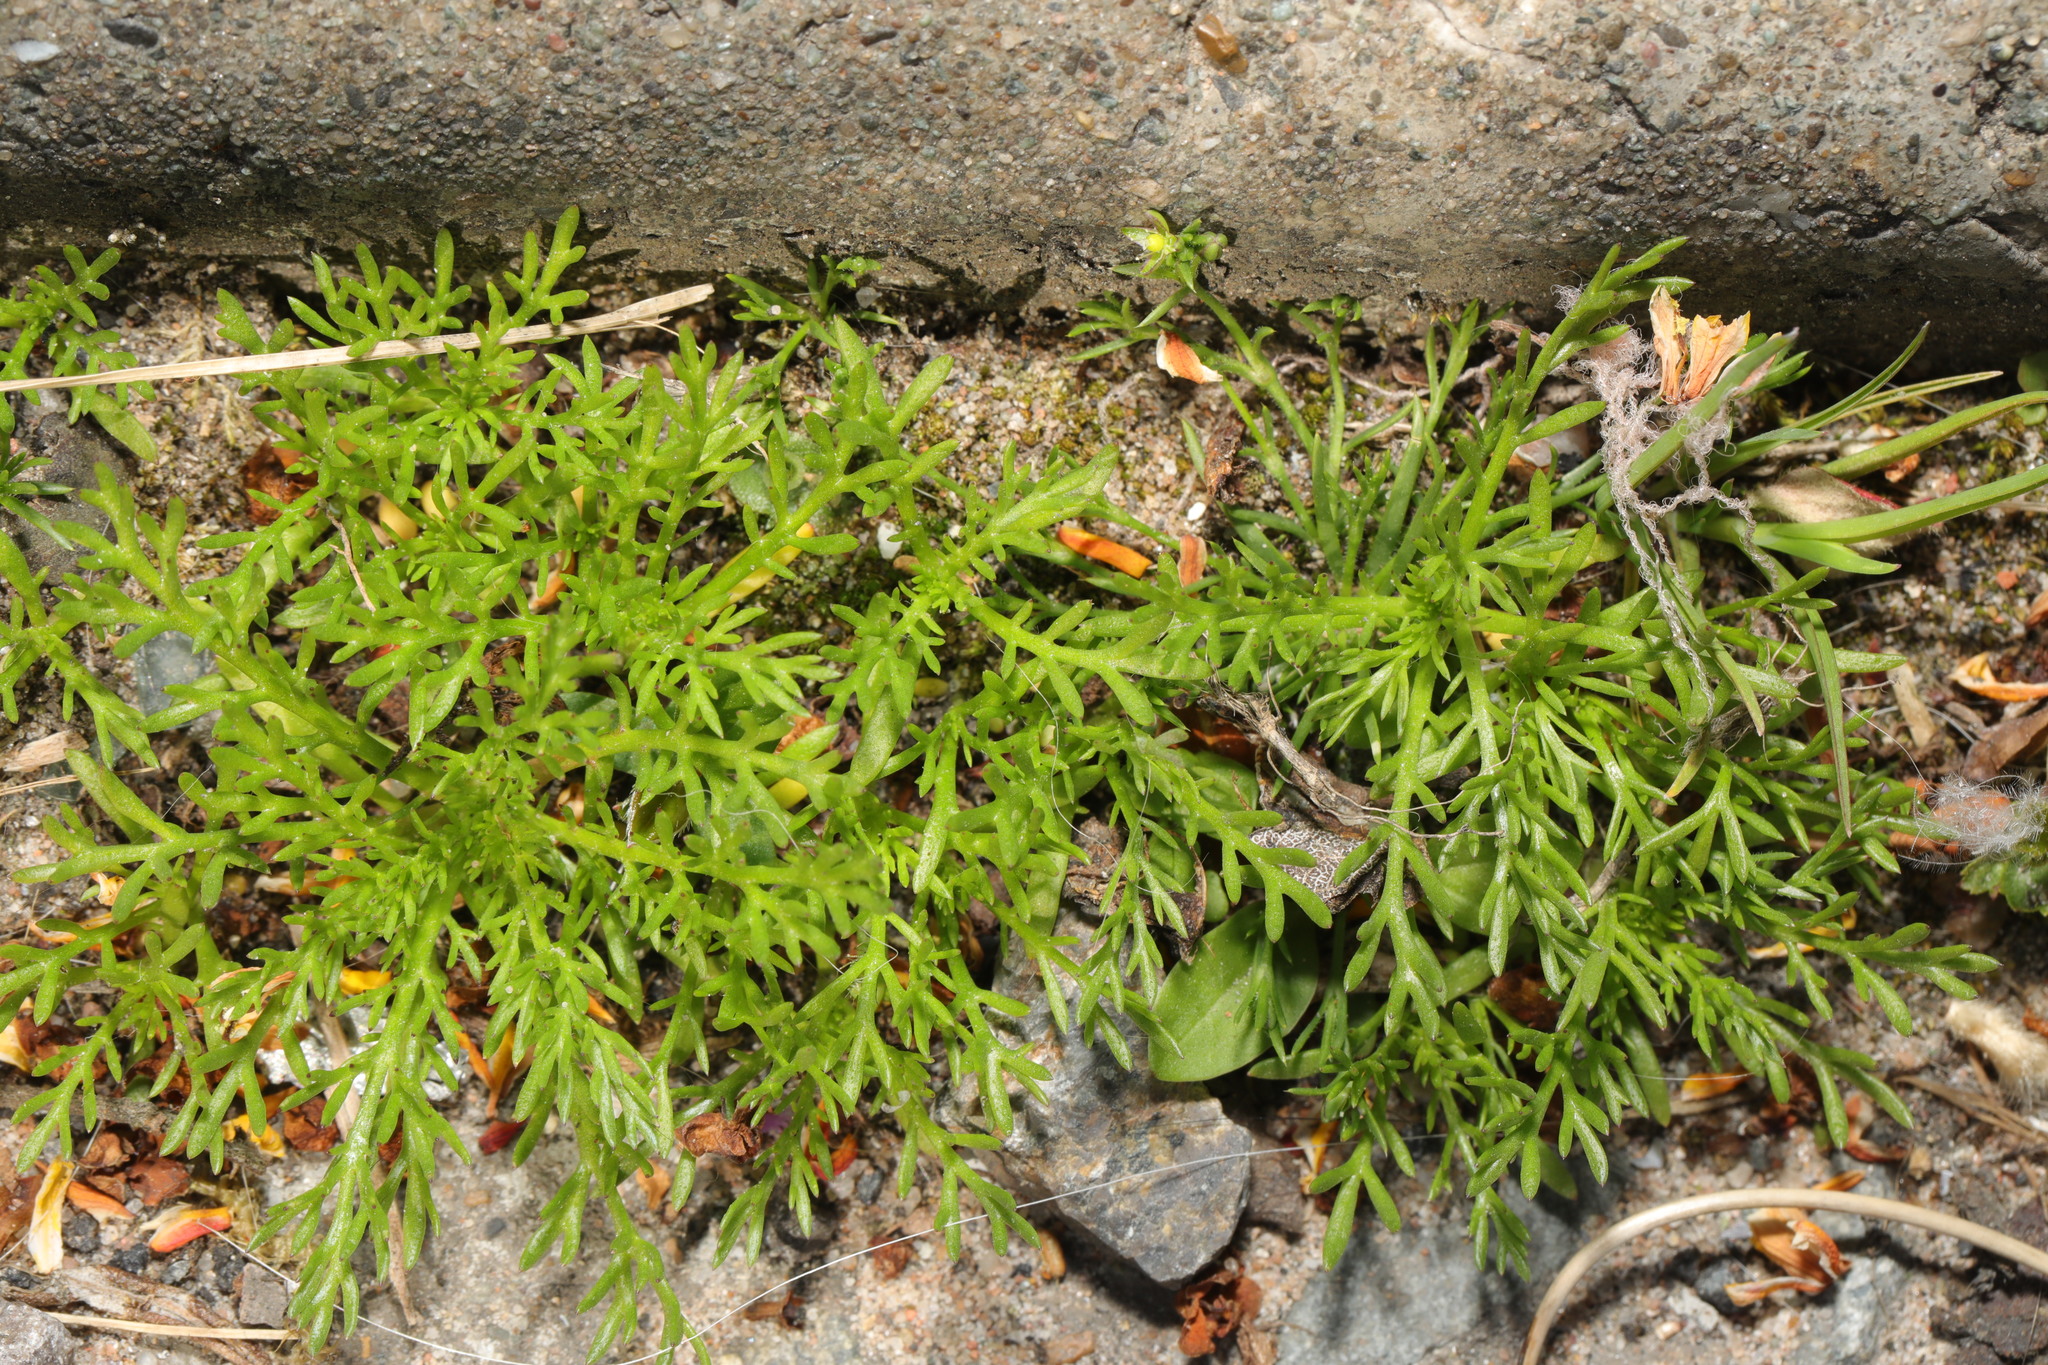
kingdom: Plantae
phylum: Tracheophyta
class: Magnoliopsida
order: Asterales
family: Asteraceae
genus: Matricaria
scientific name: Matricaria discoidea
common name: Disc mayweed
